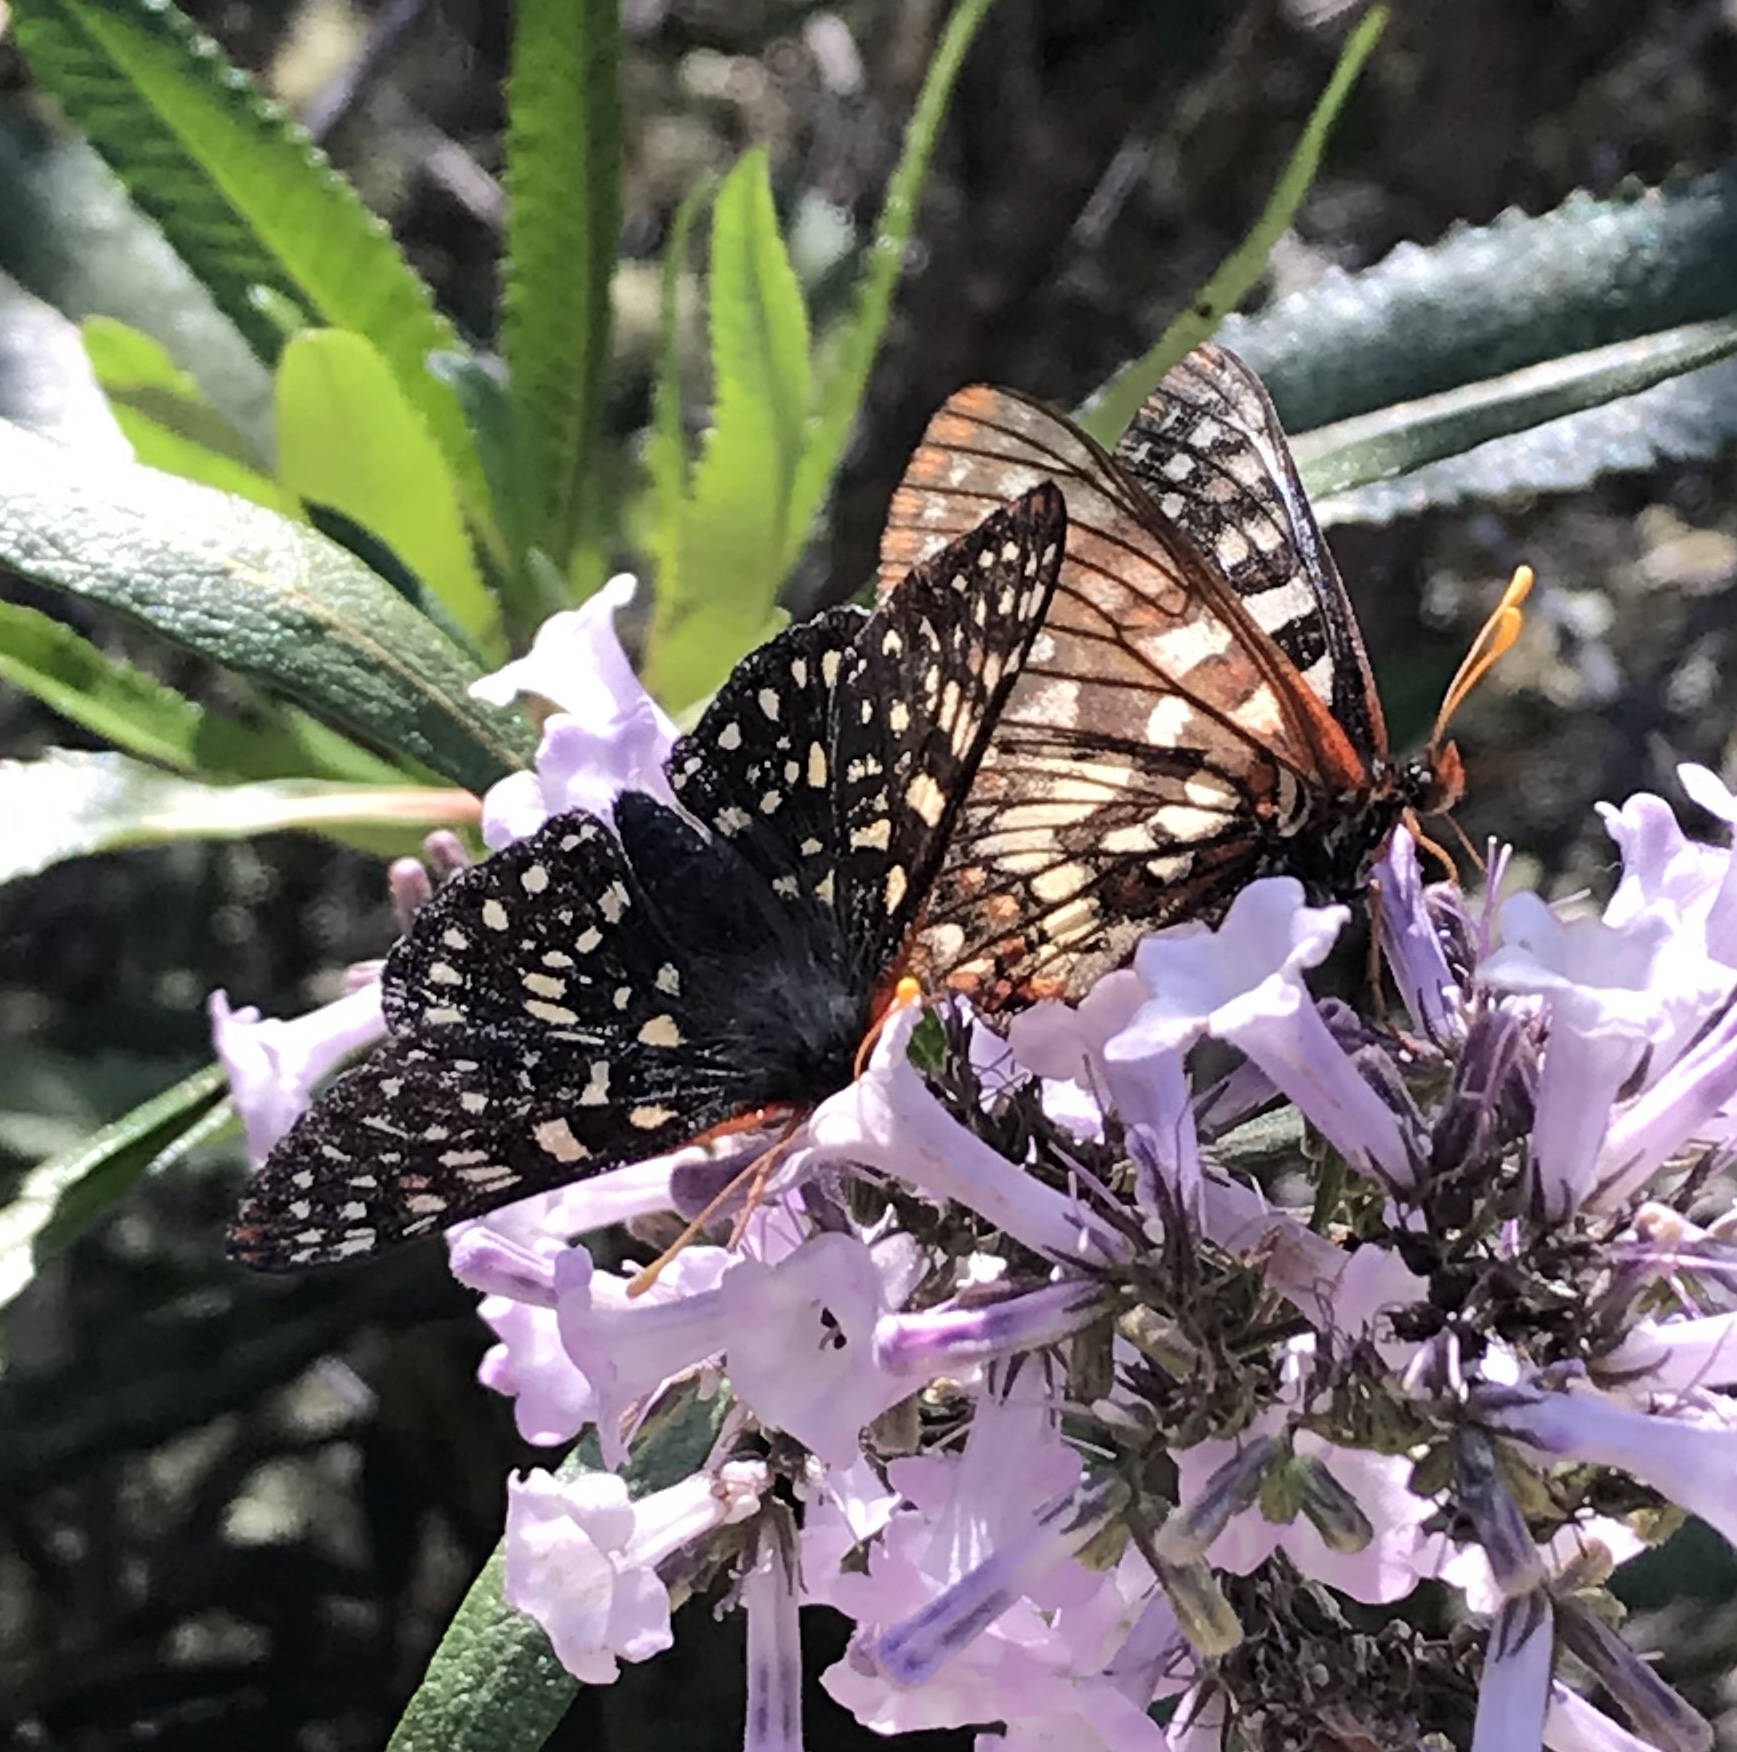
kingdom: Animalia
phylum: Arthropoda
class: Insecta
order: Lepidoptera
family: Nymphalidae
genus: Occidryas
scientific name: Occidryas chalcedona
